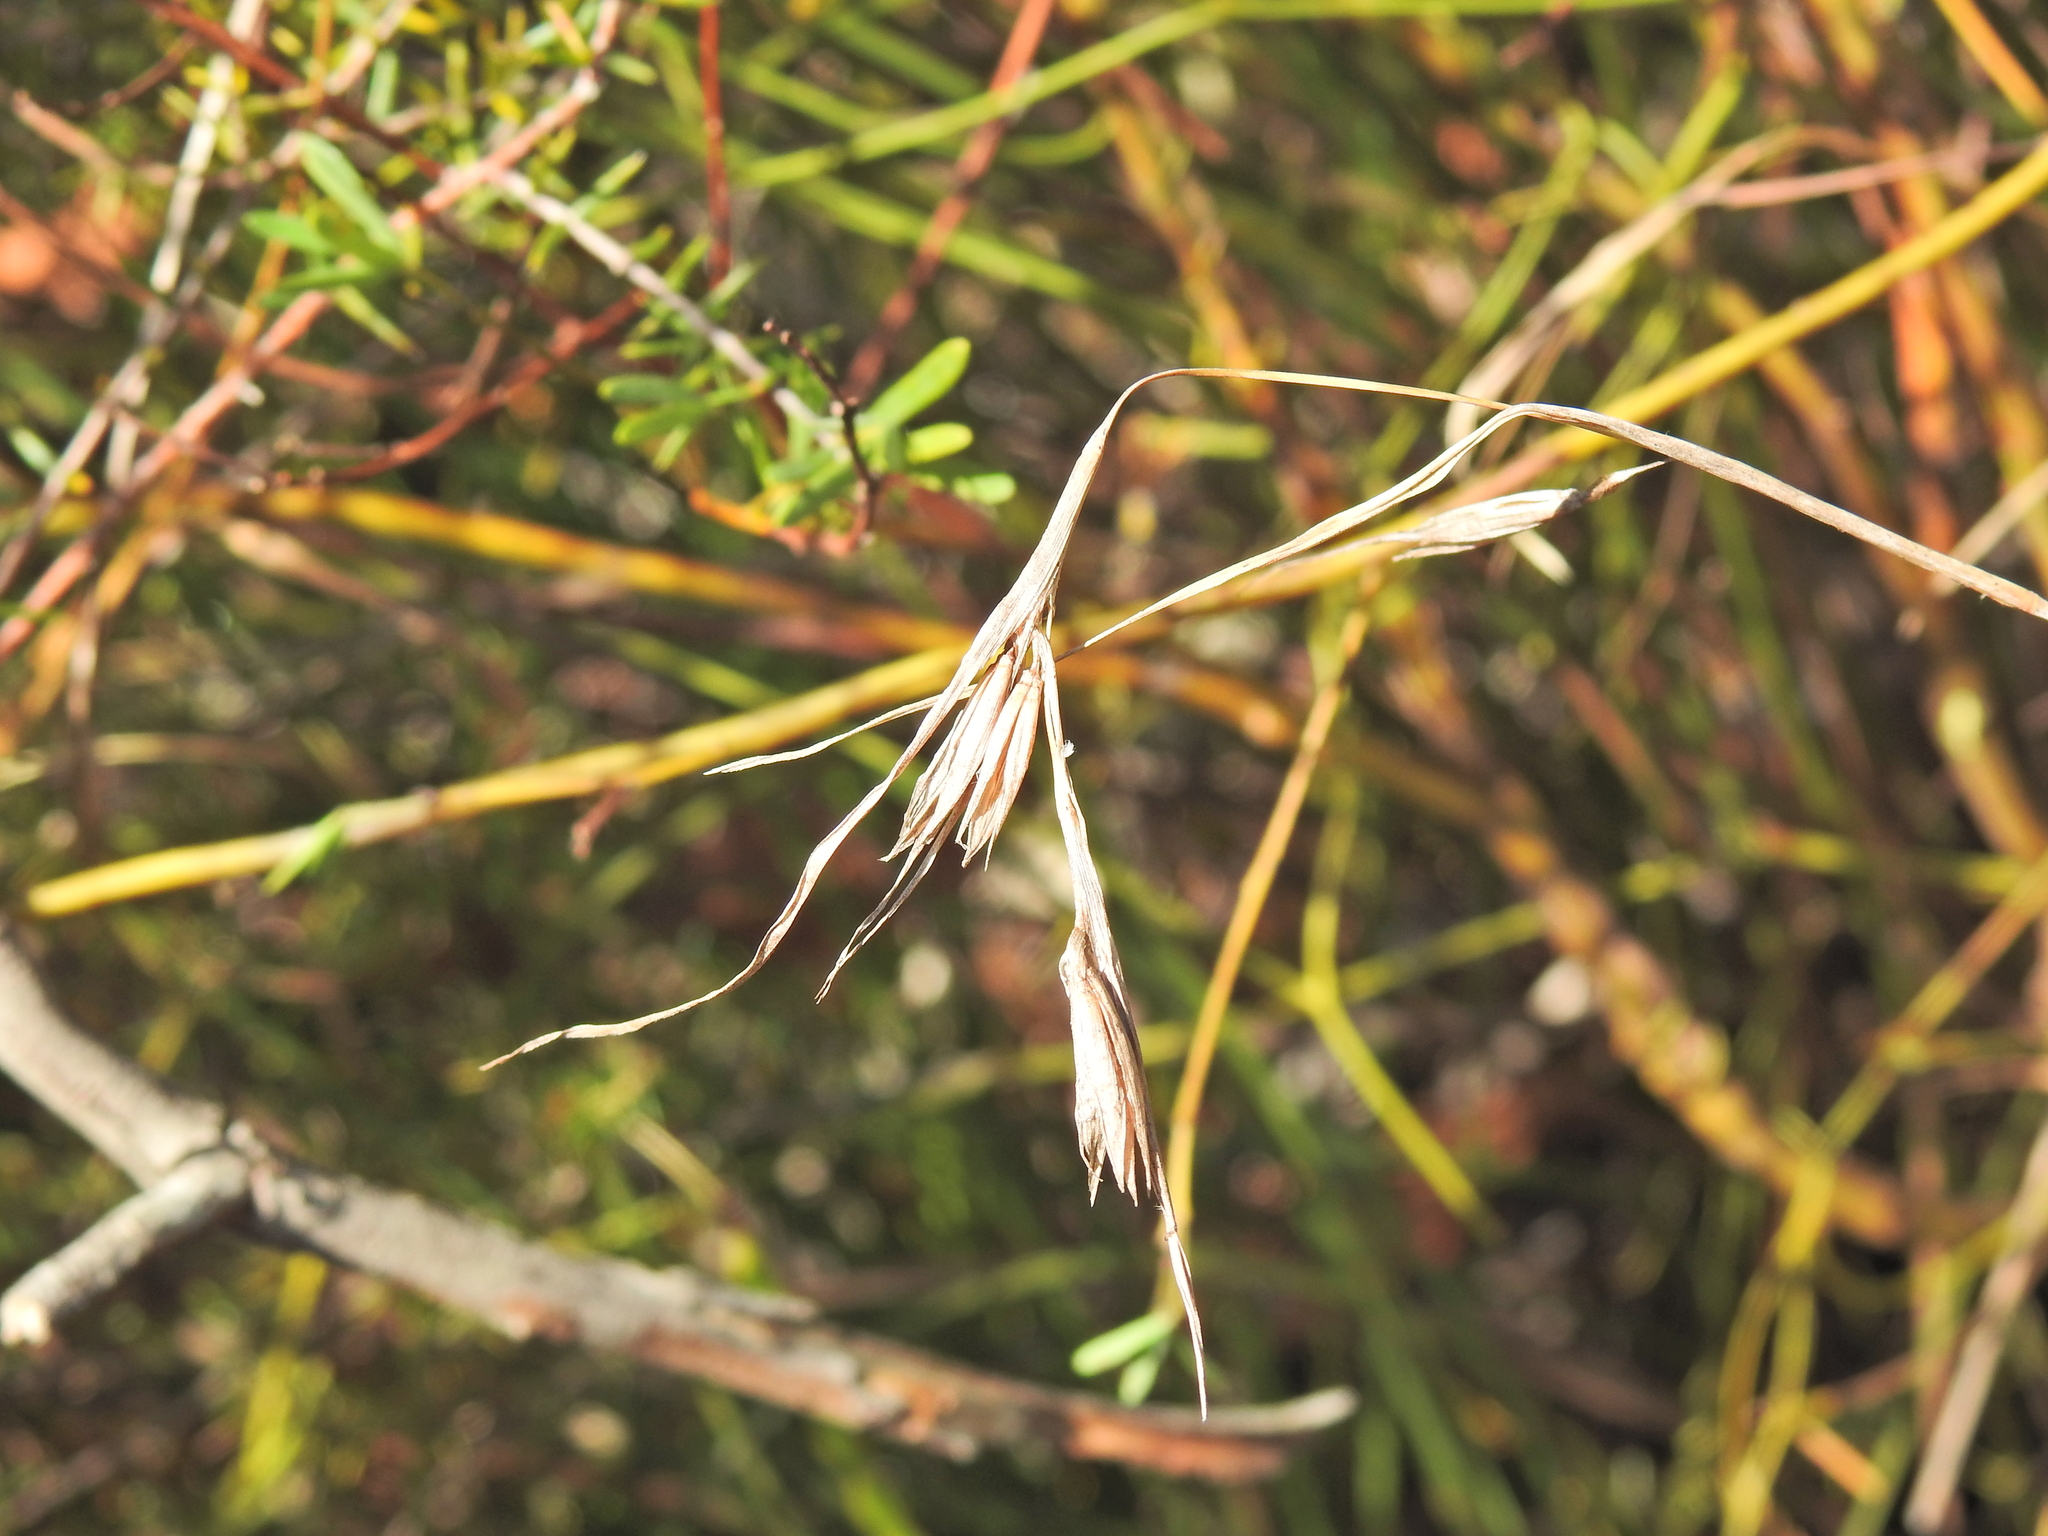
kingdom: Plantae
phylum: Tracheophyta
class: Liliopsida
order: Poales
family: Poaceae
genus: Themeda
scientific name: Themeda triandra
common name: Kangaroo grass
